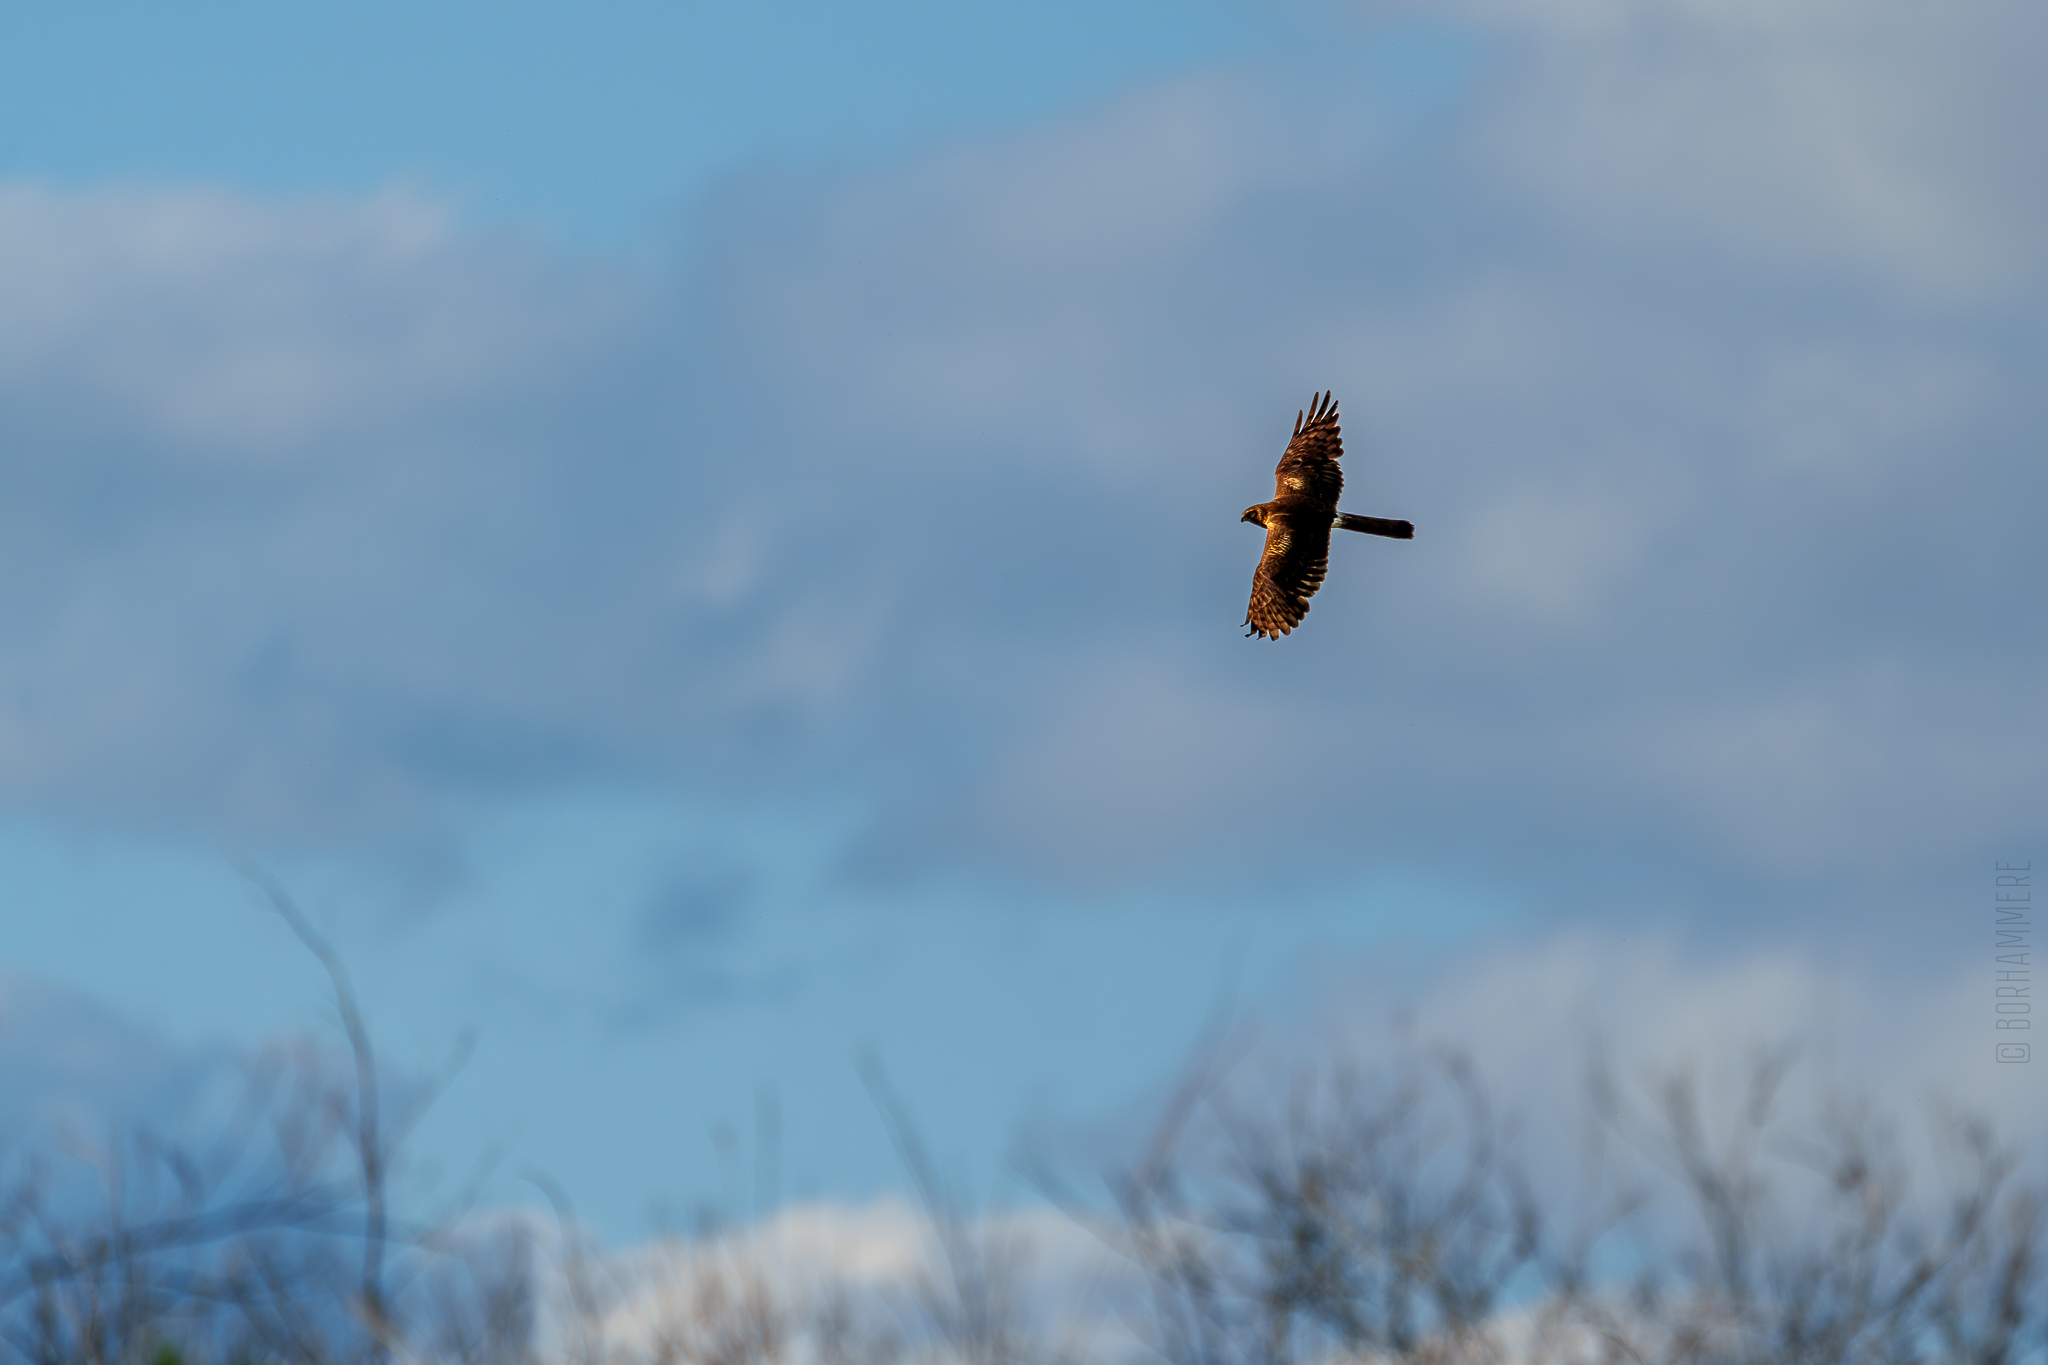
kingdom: Animalia
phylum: Chordata
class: Aves
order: Accipitriformes
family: Accipitridae
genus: Circus
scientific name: Circus aeruginosus
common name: Western marsh harrier
